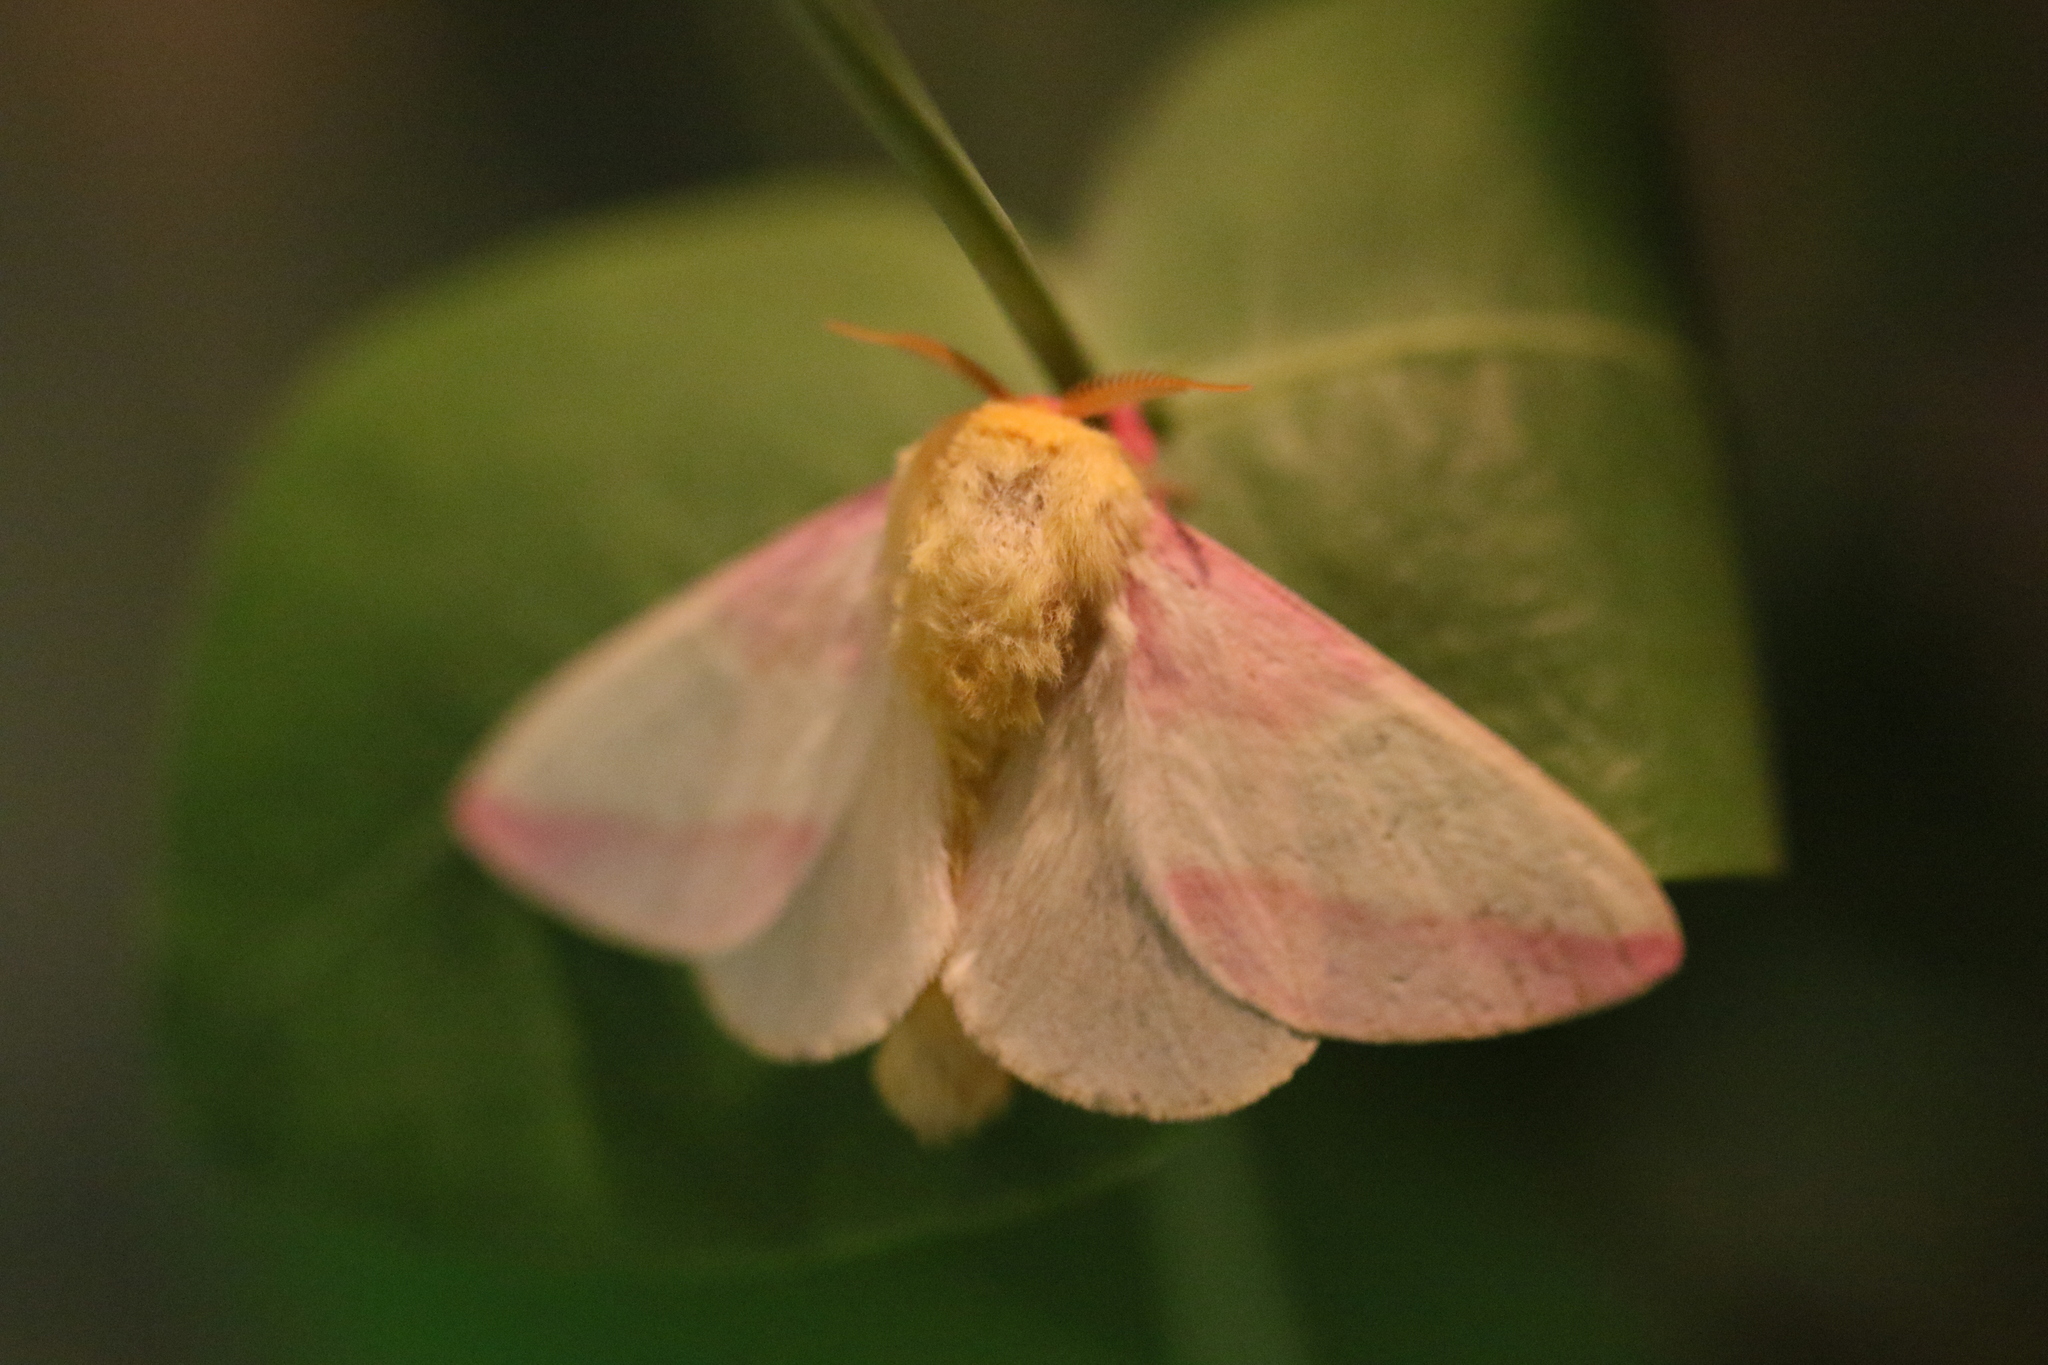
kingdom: Animalia
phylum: Arthropoda
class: Insecta
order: Lepidoptera
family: Saturniidae
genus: Dryocampa
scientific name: Dryocampa rubicunda
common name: Rosy maple moth
